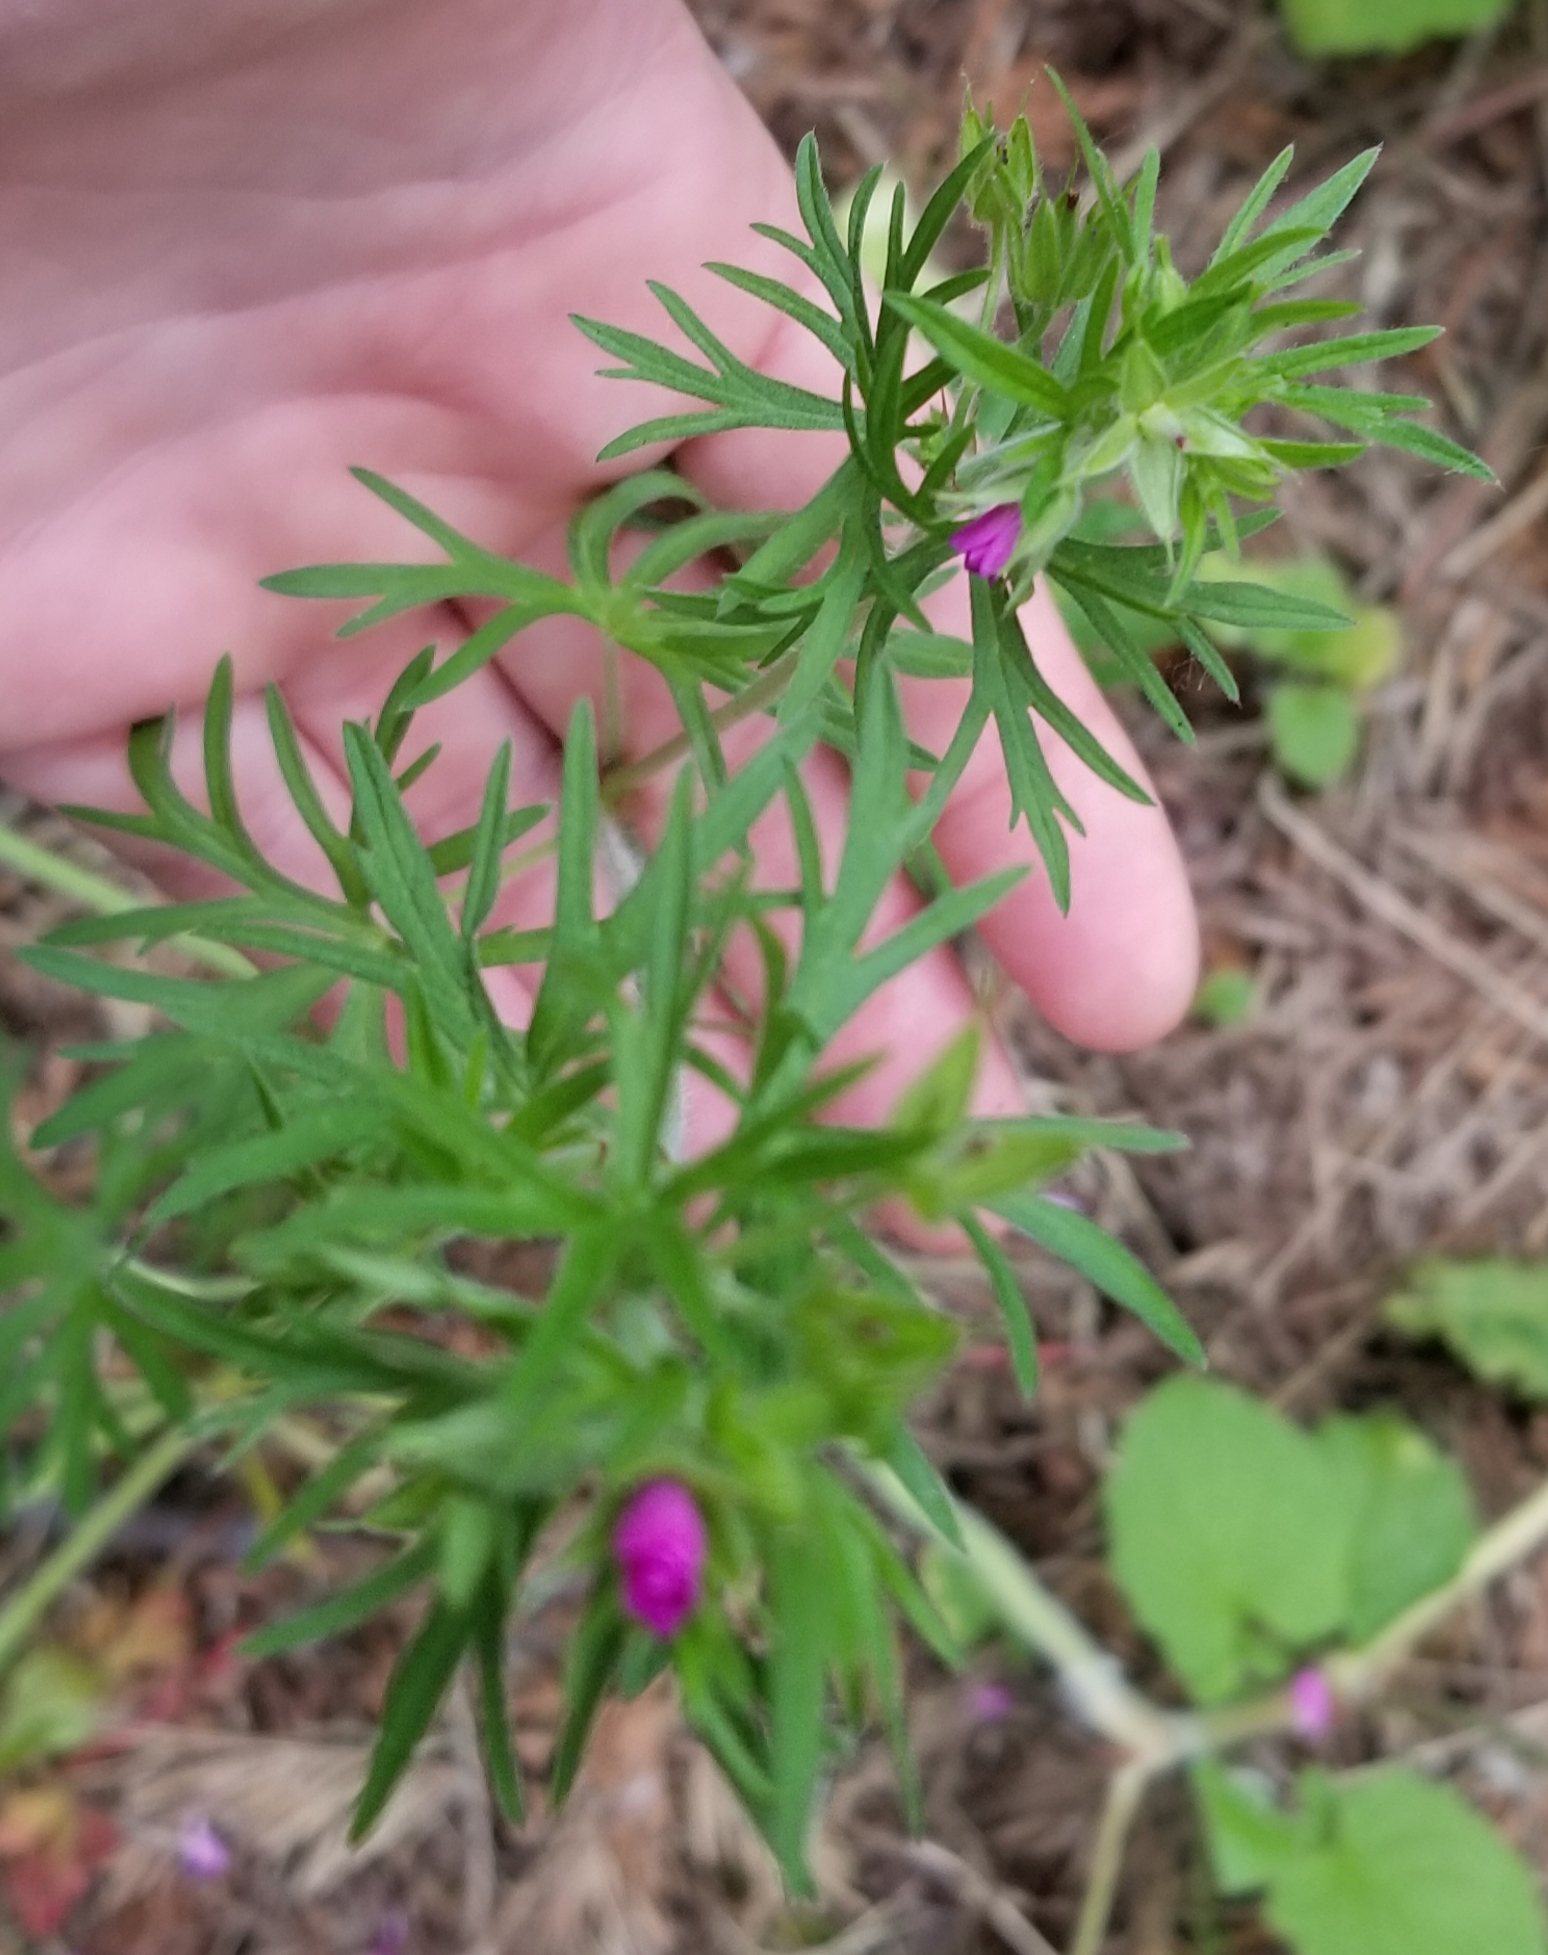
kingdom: Plantae
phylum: Tracheophyta
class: Magnoliopsida
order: Geraniales
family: Geraniaceae
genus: Geranium
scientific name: Geranium dissectum
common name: Cut-leaved crane's-bill
